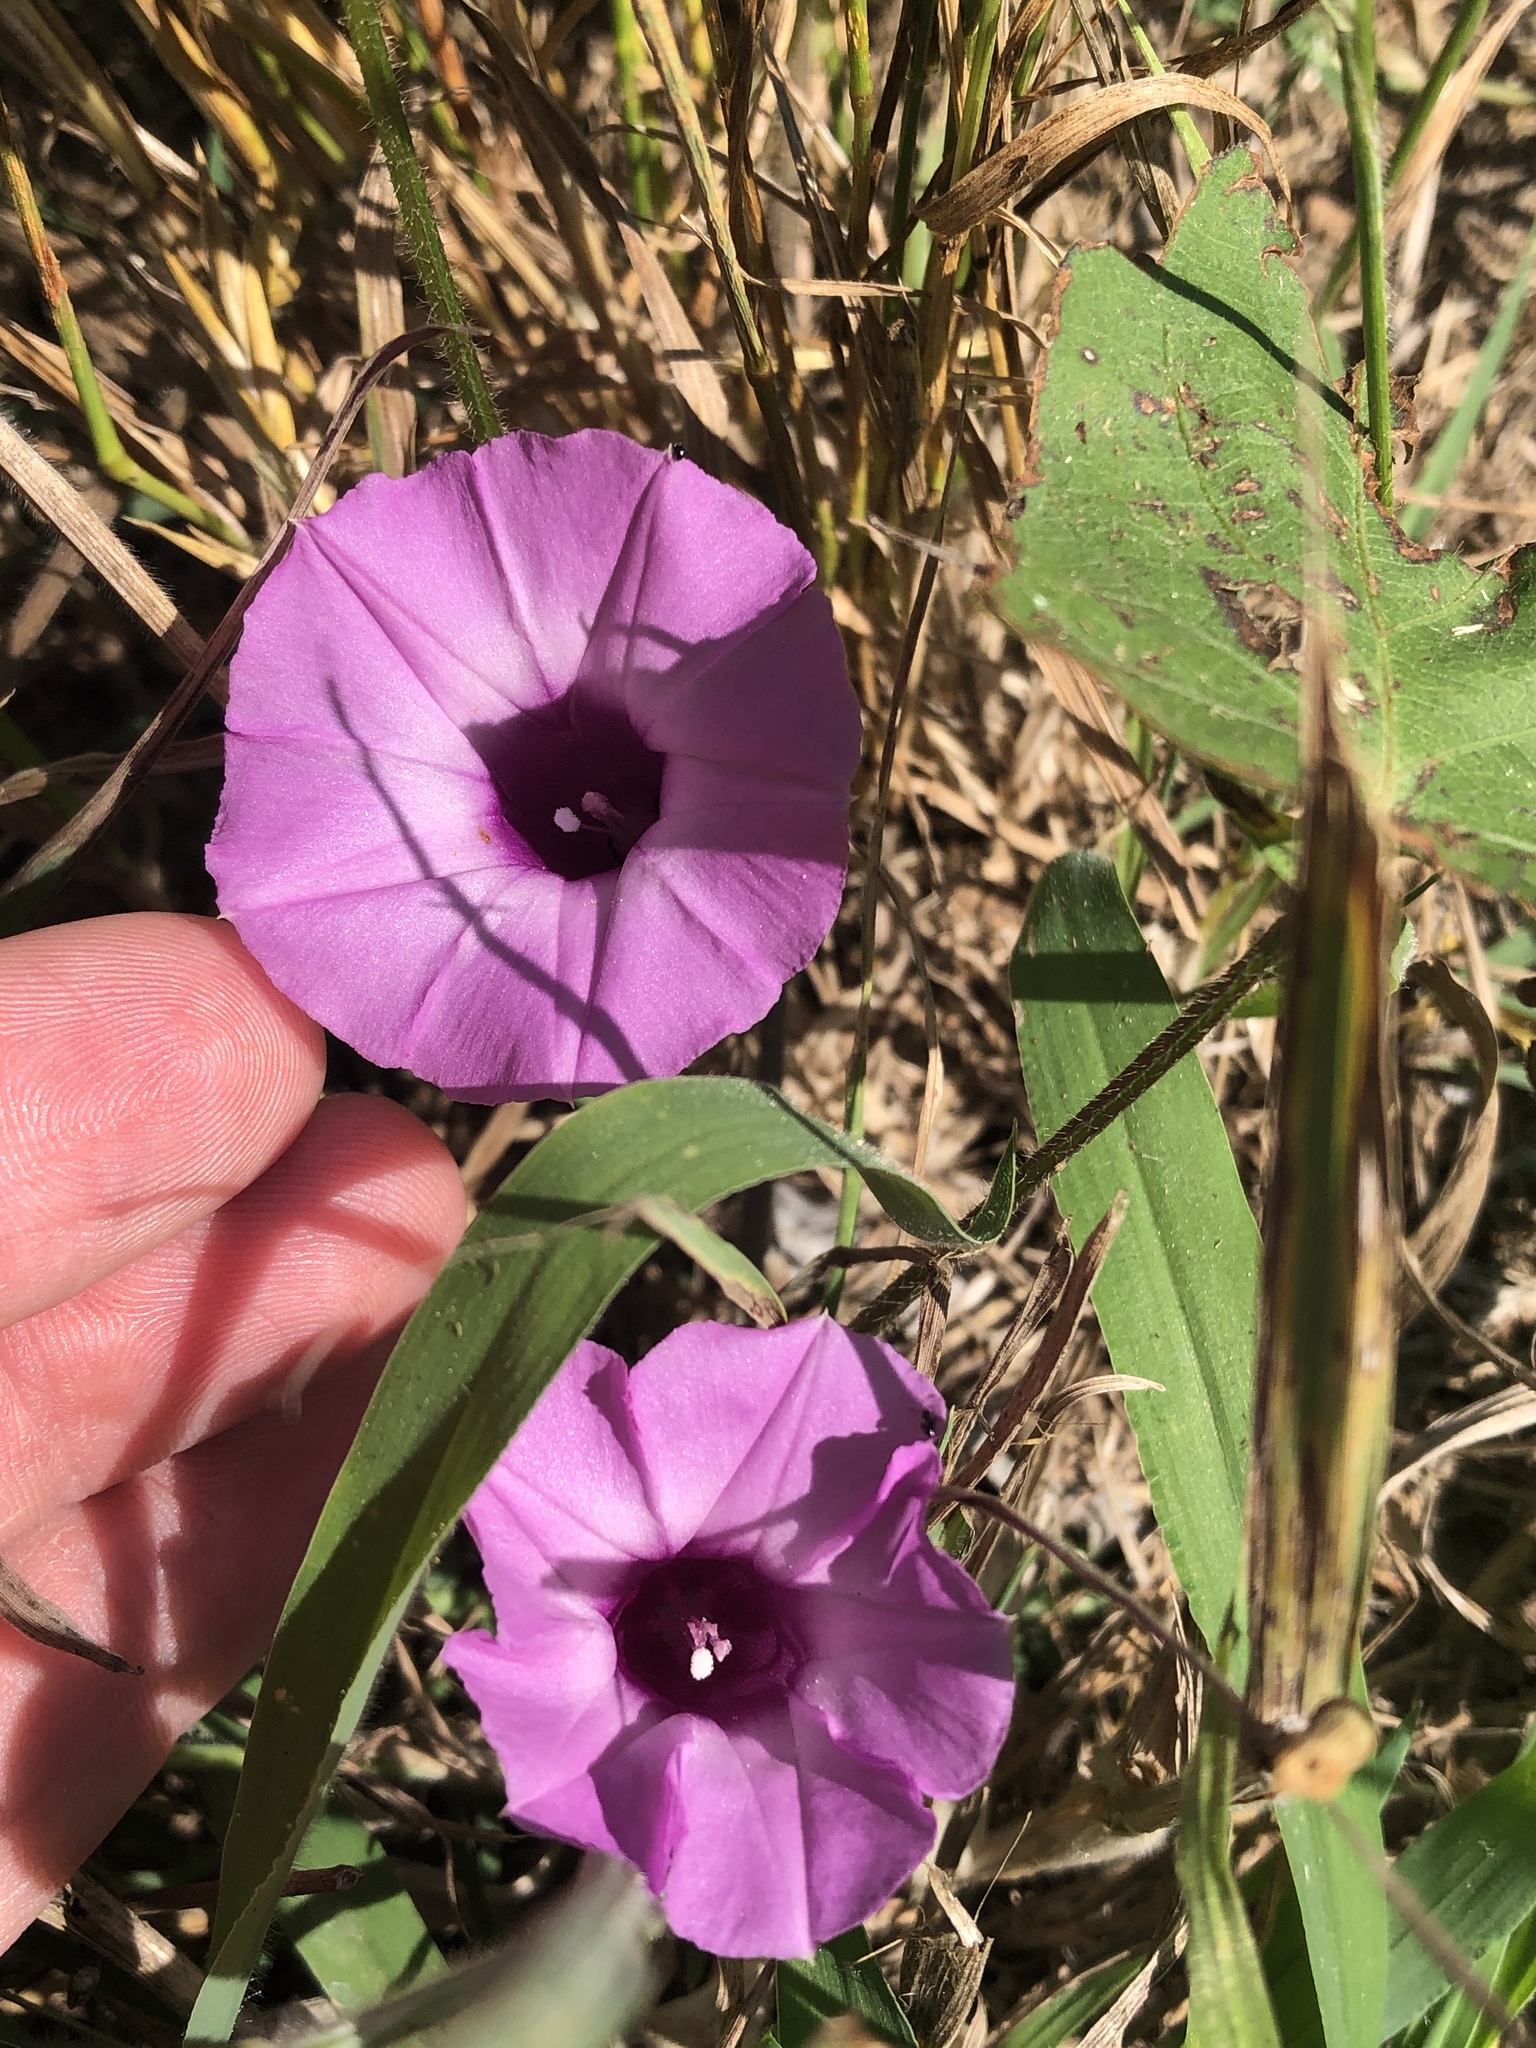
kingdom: Plantae
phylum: Tracheophyta
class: Magnoliopsida
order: Solanales
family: Convolvulaceae
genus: Ipomoea
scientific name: Ipomoea cordatotriloba
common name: Cotton morning glory
